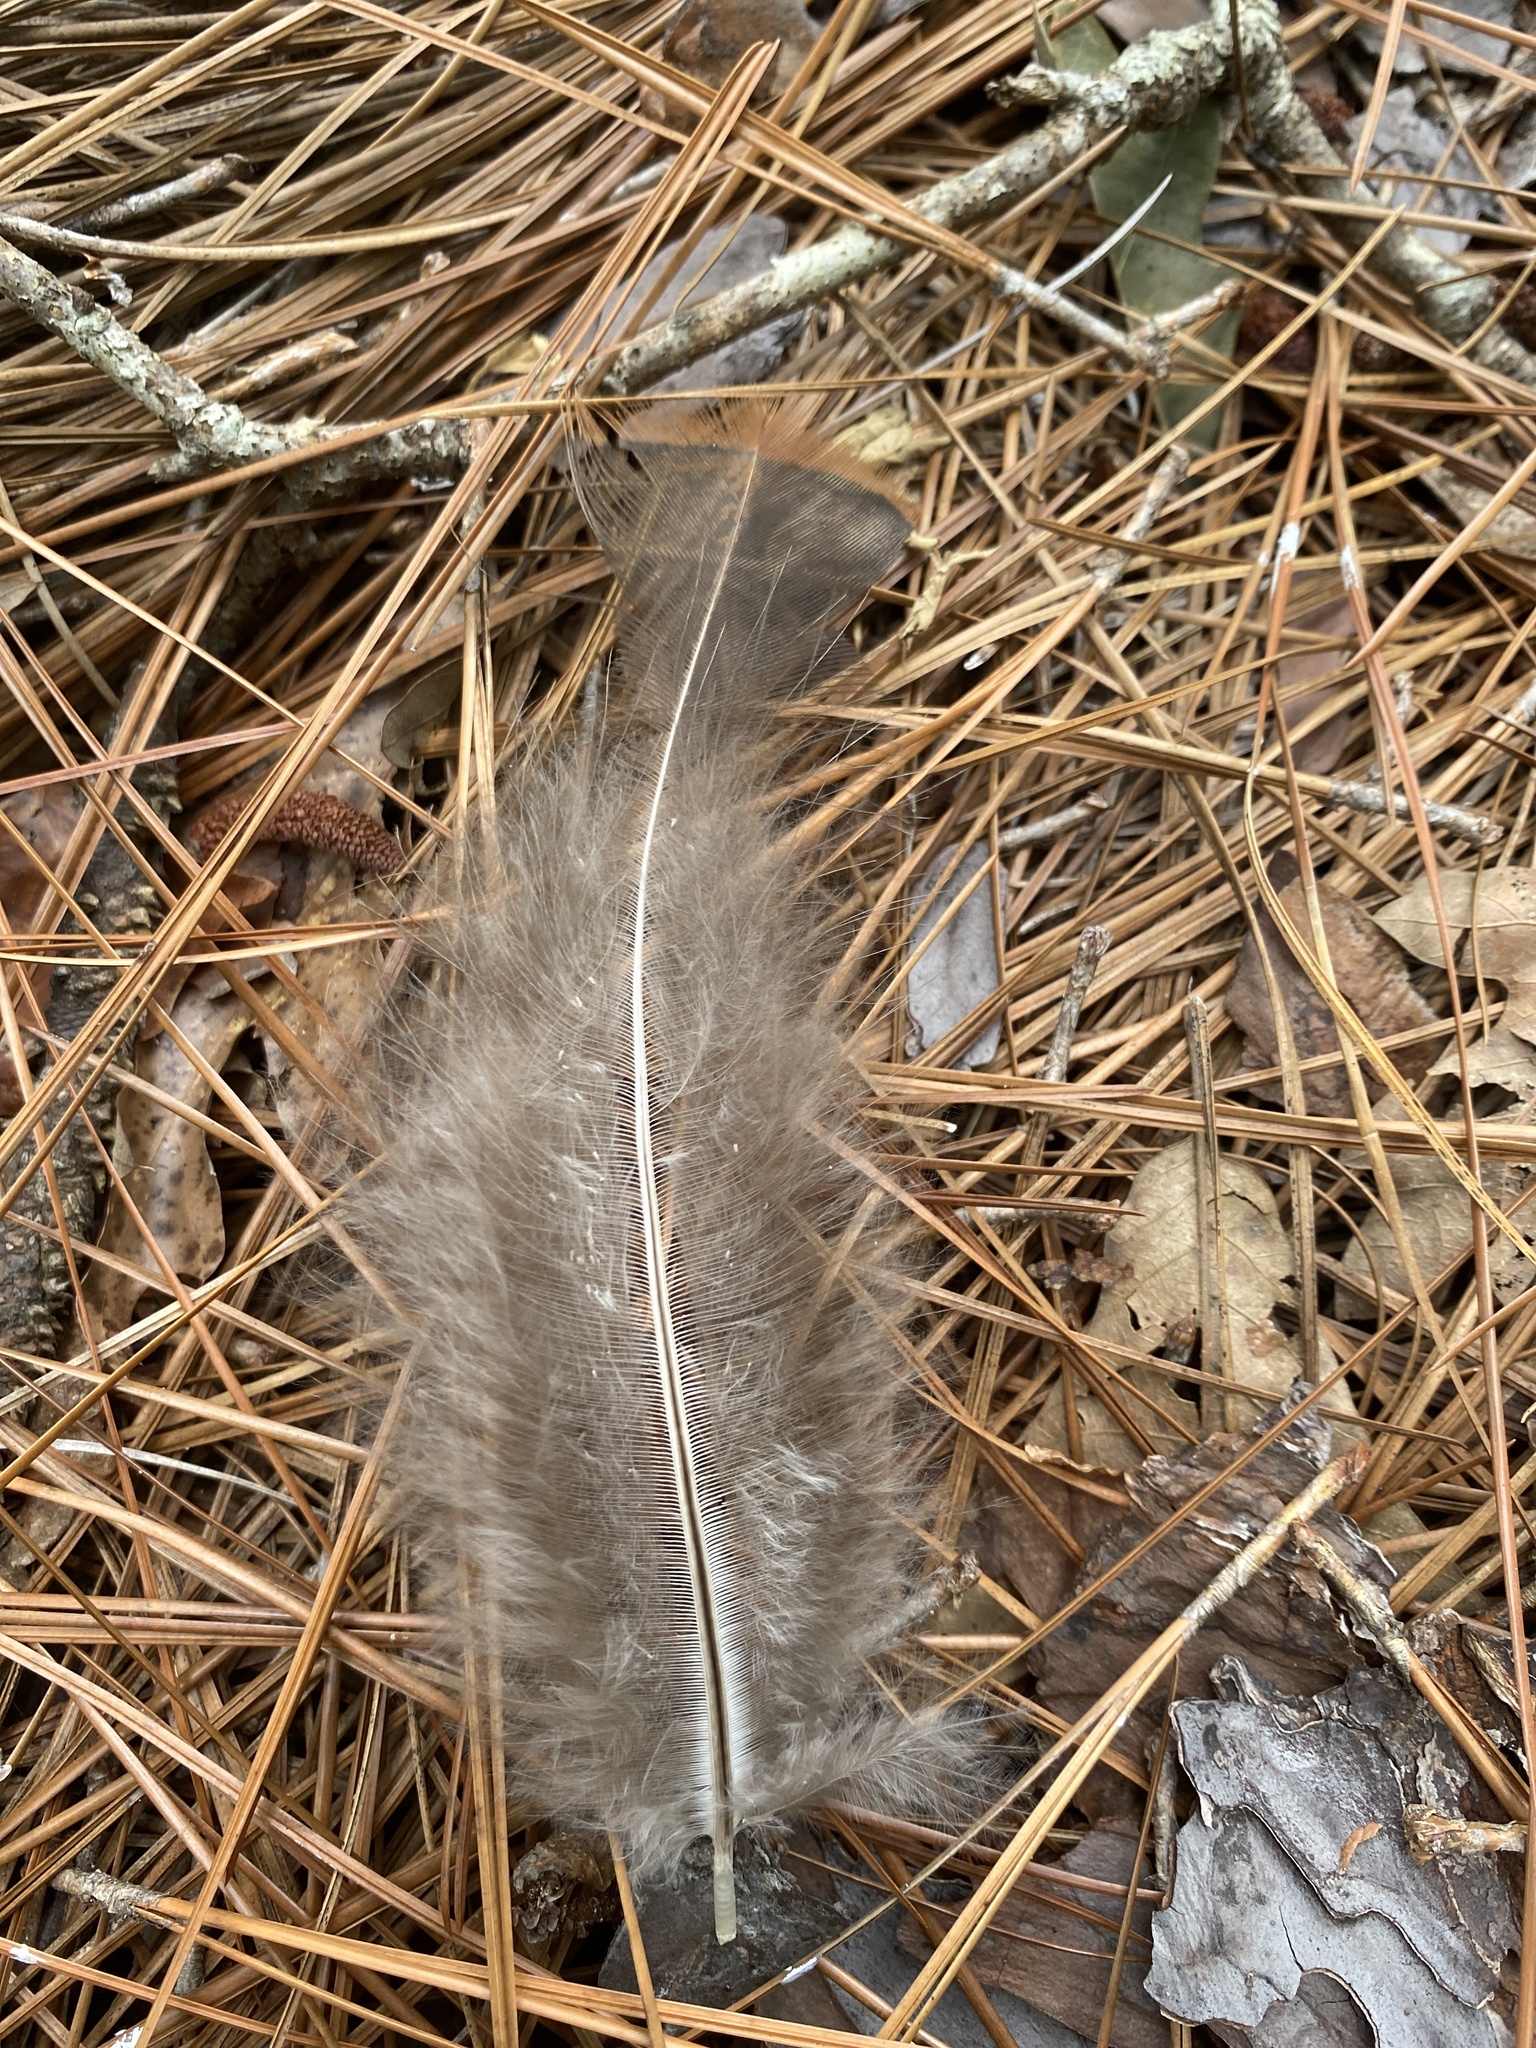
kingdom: Animalia
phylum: Chordata
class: Aves
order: Galliformes
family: Phasianidae
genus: Meleagris
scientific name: Meleagris gallopavo
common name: Wild turkey
